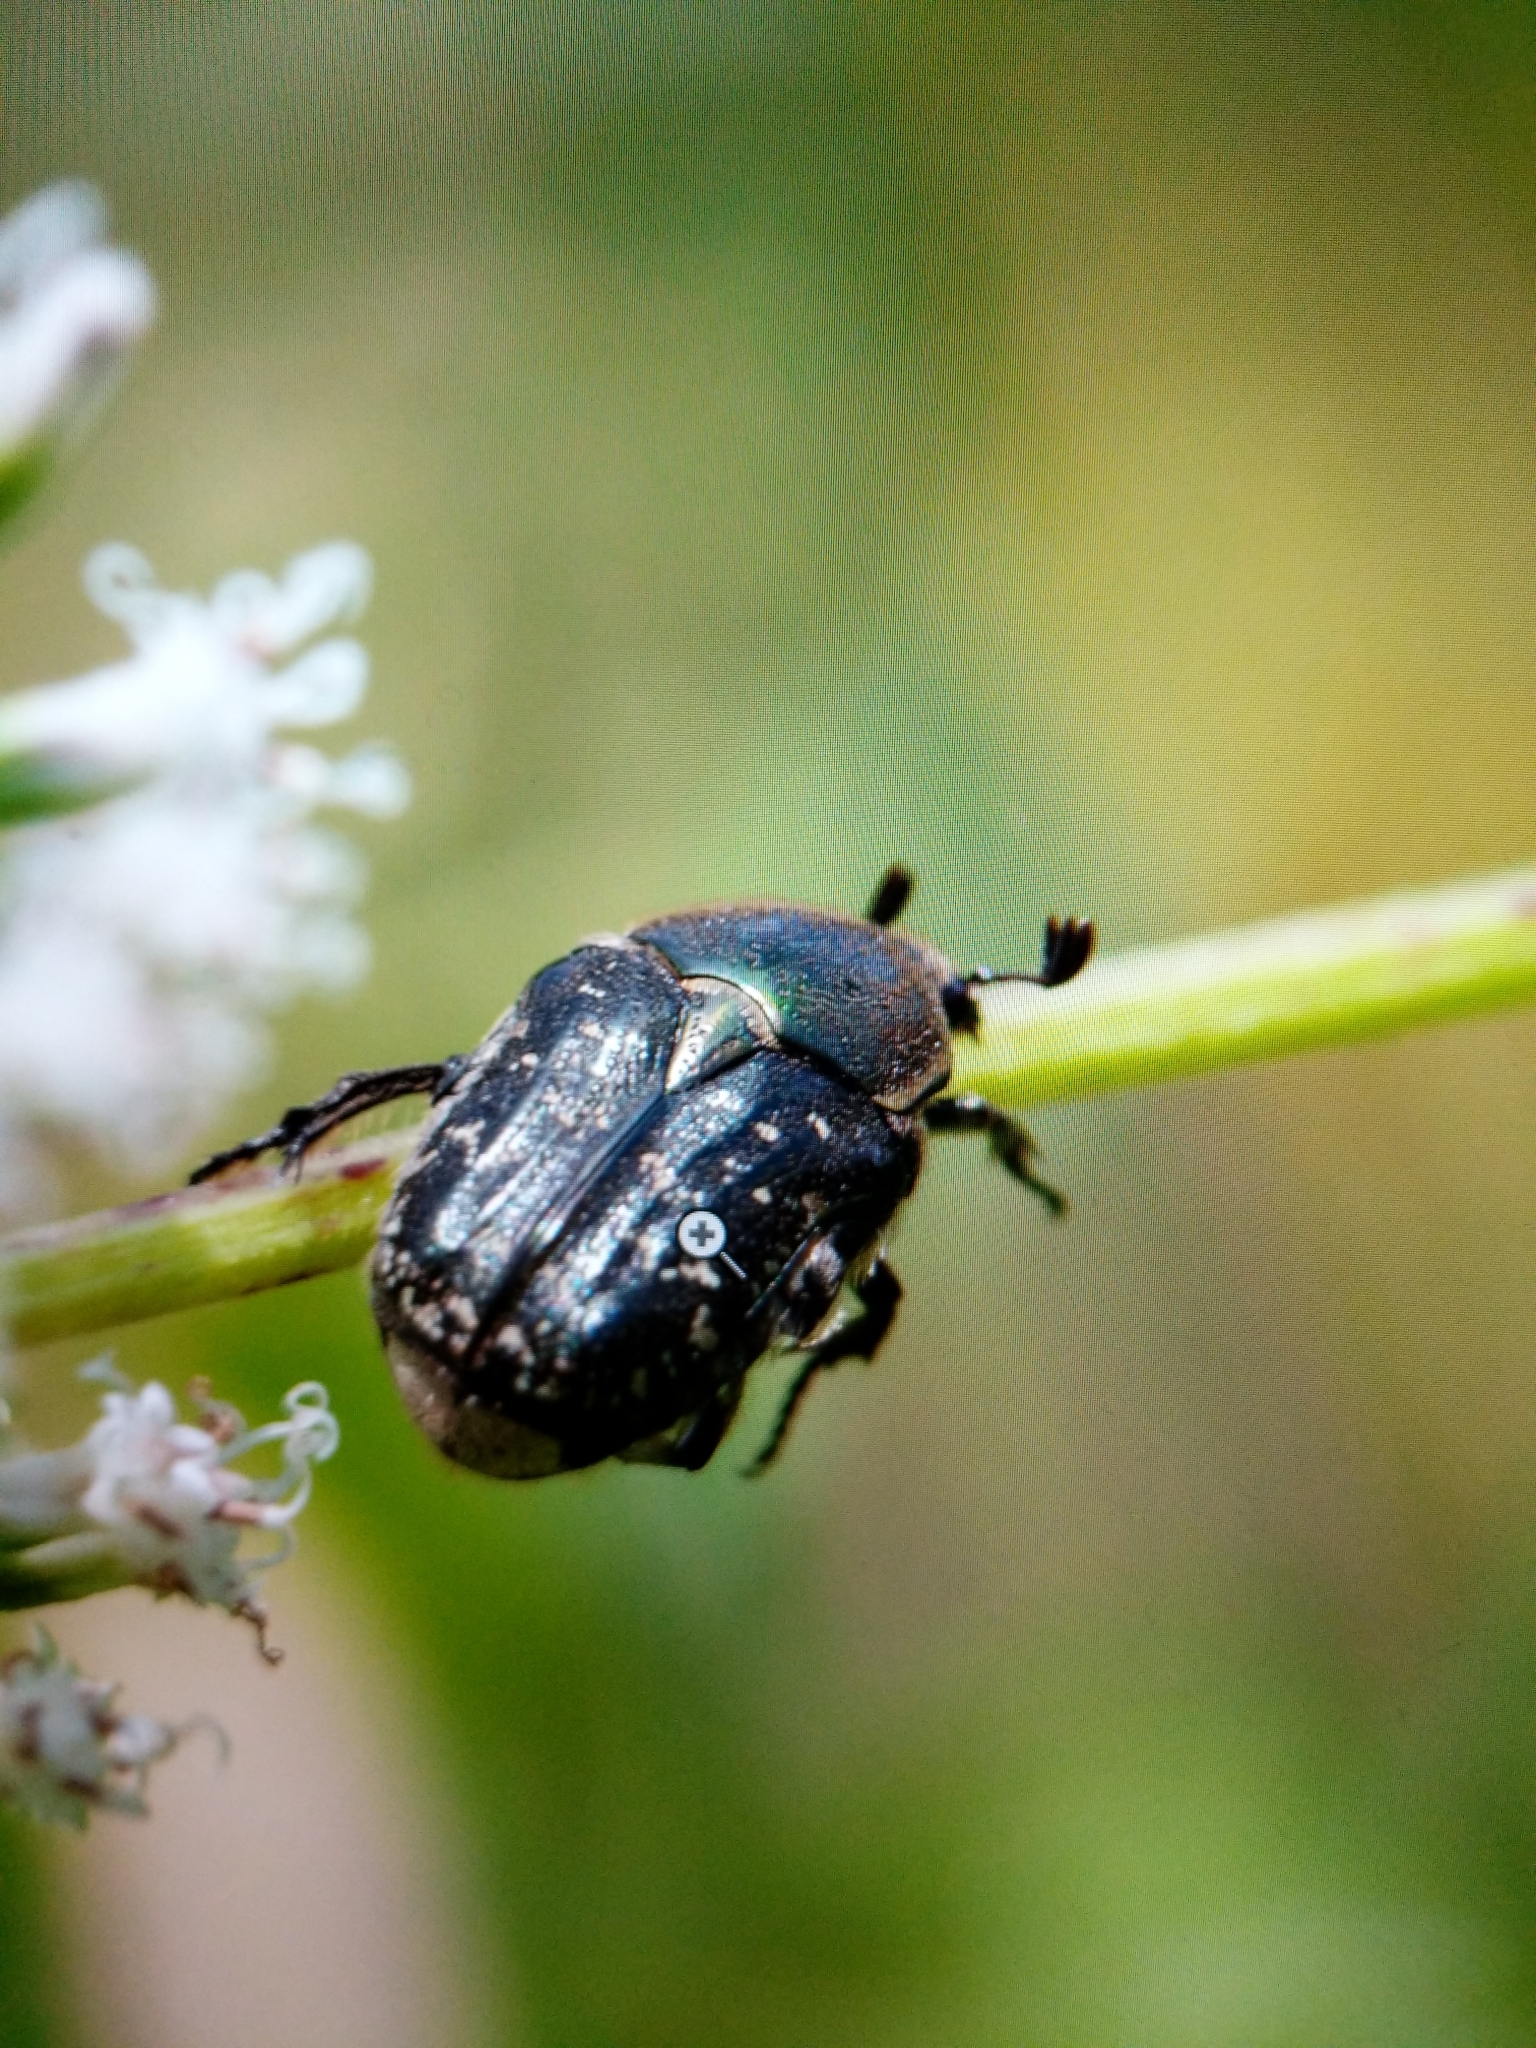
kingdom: Animalia
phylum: Arthropoda
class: Insecta
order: Coleoptera
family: Scarabaeidae
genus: Euphoria
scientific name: Euphoria sepulcralis
